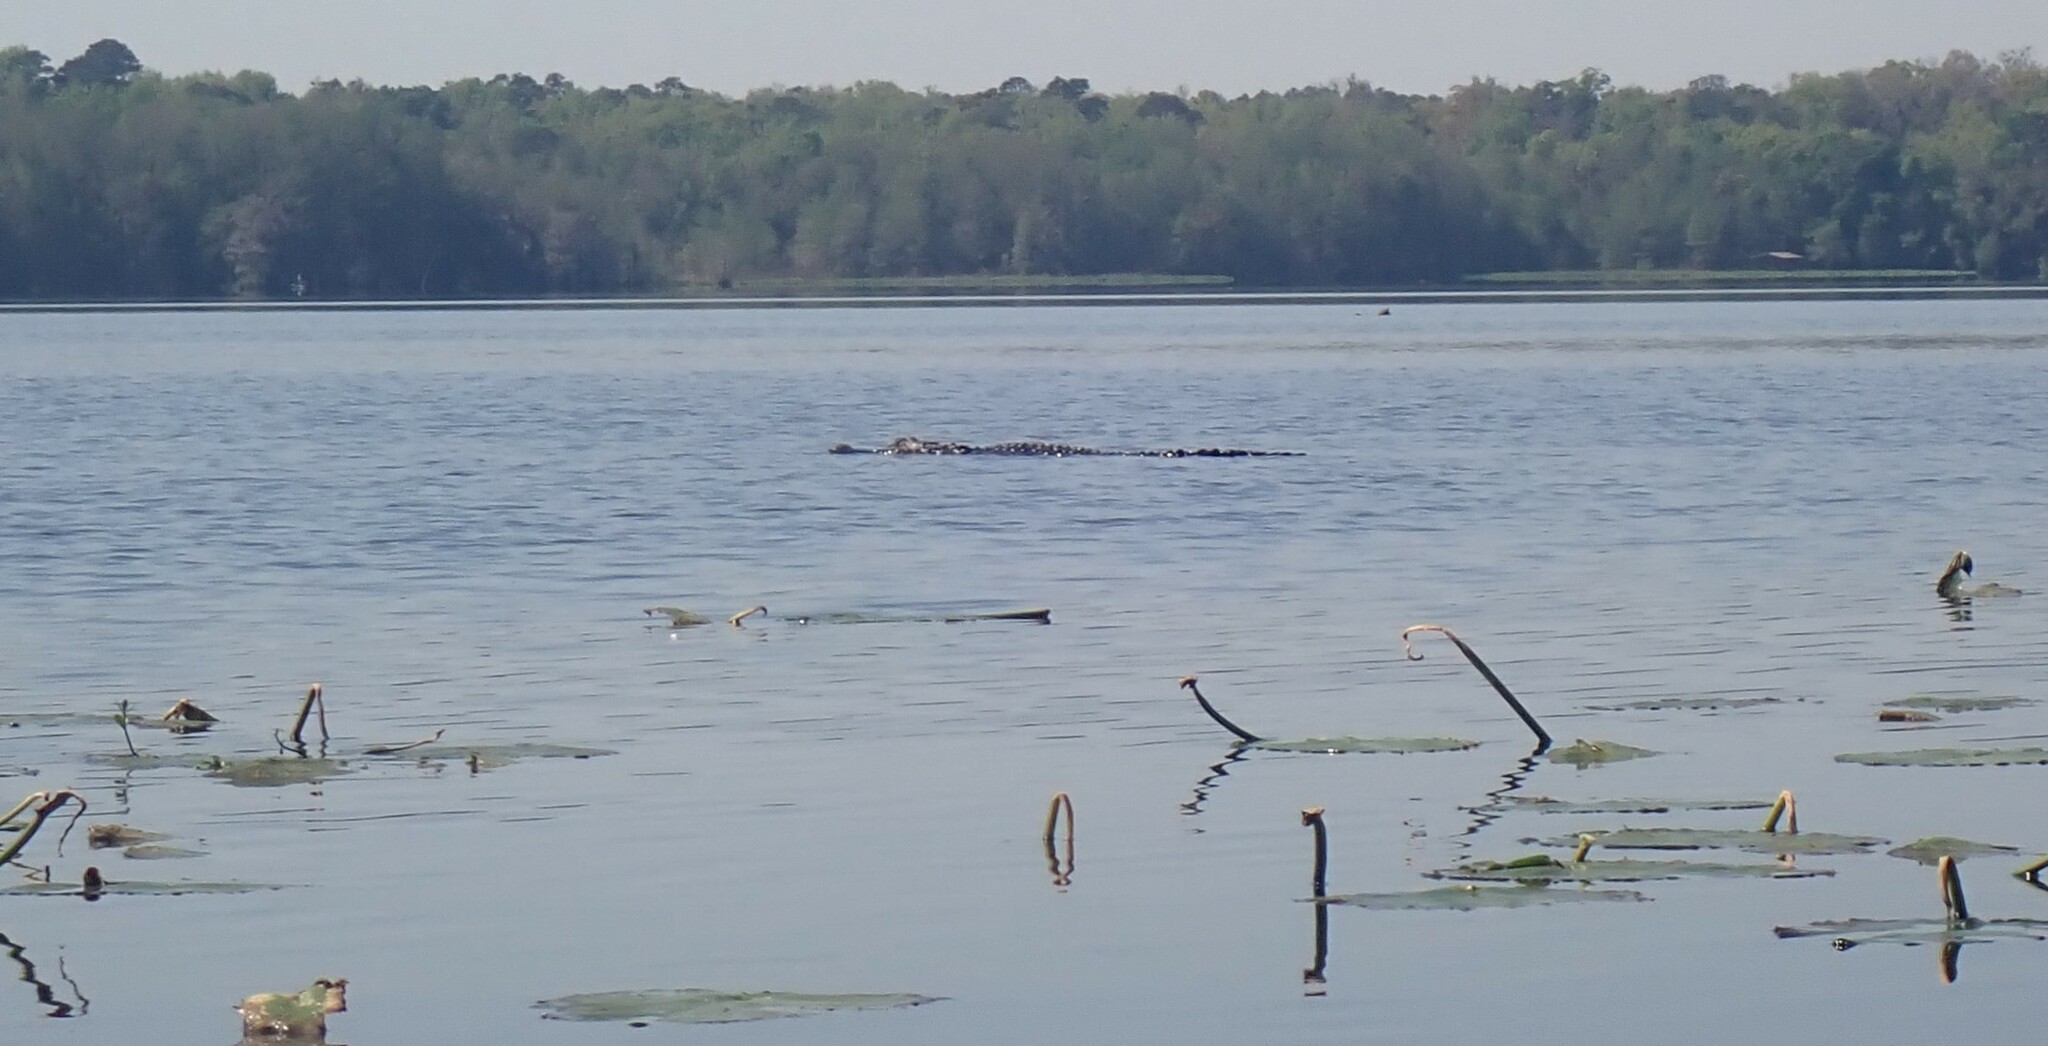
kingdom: Animalia
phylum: Chordata
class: Crocodylia
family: Alligatoridae
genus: Alligator
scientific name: Alligator mississippiensis
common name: American alligator
